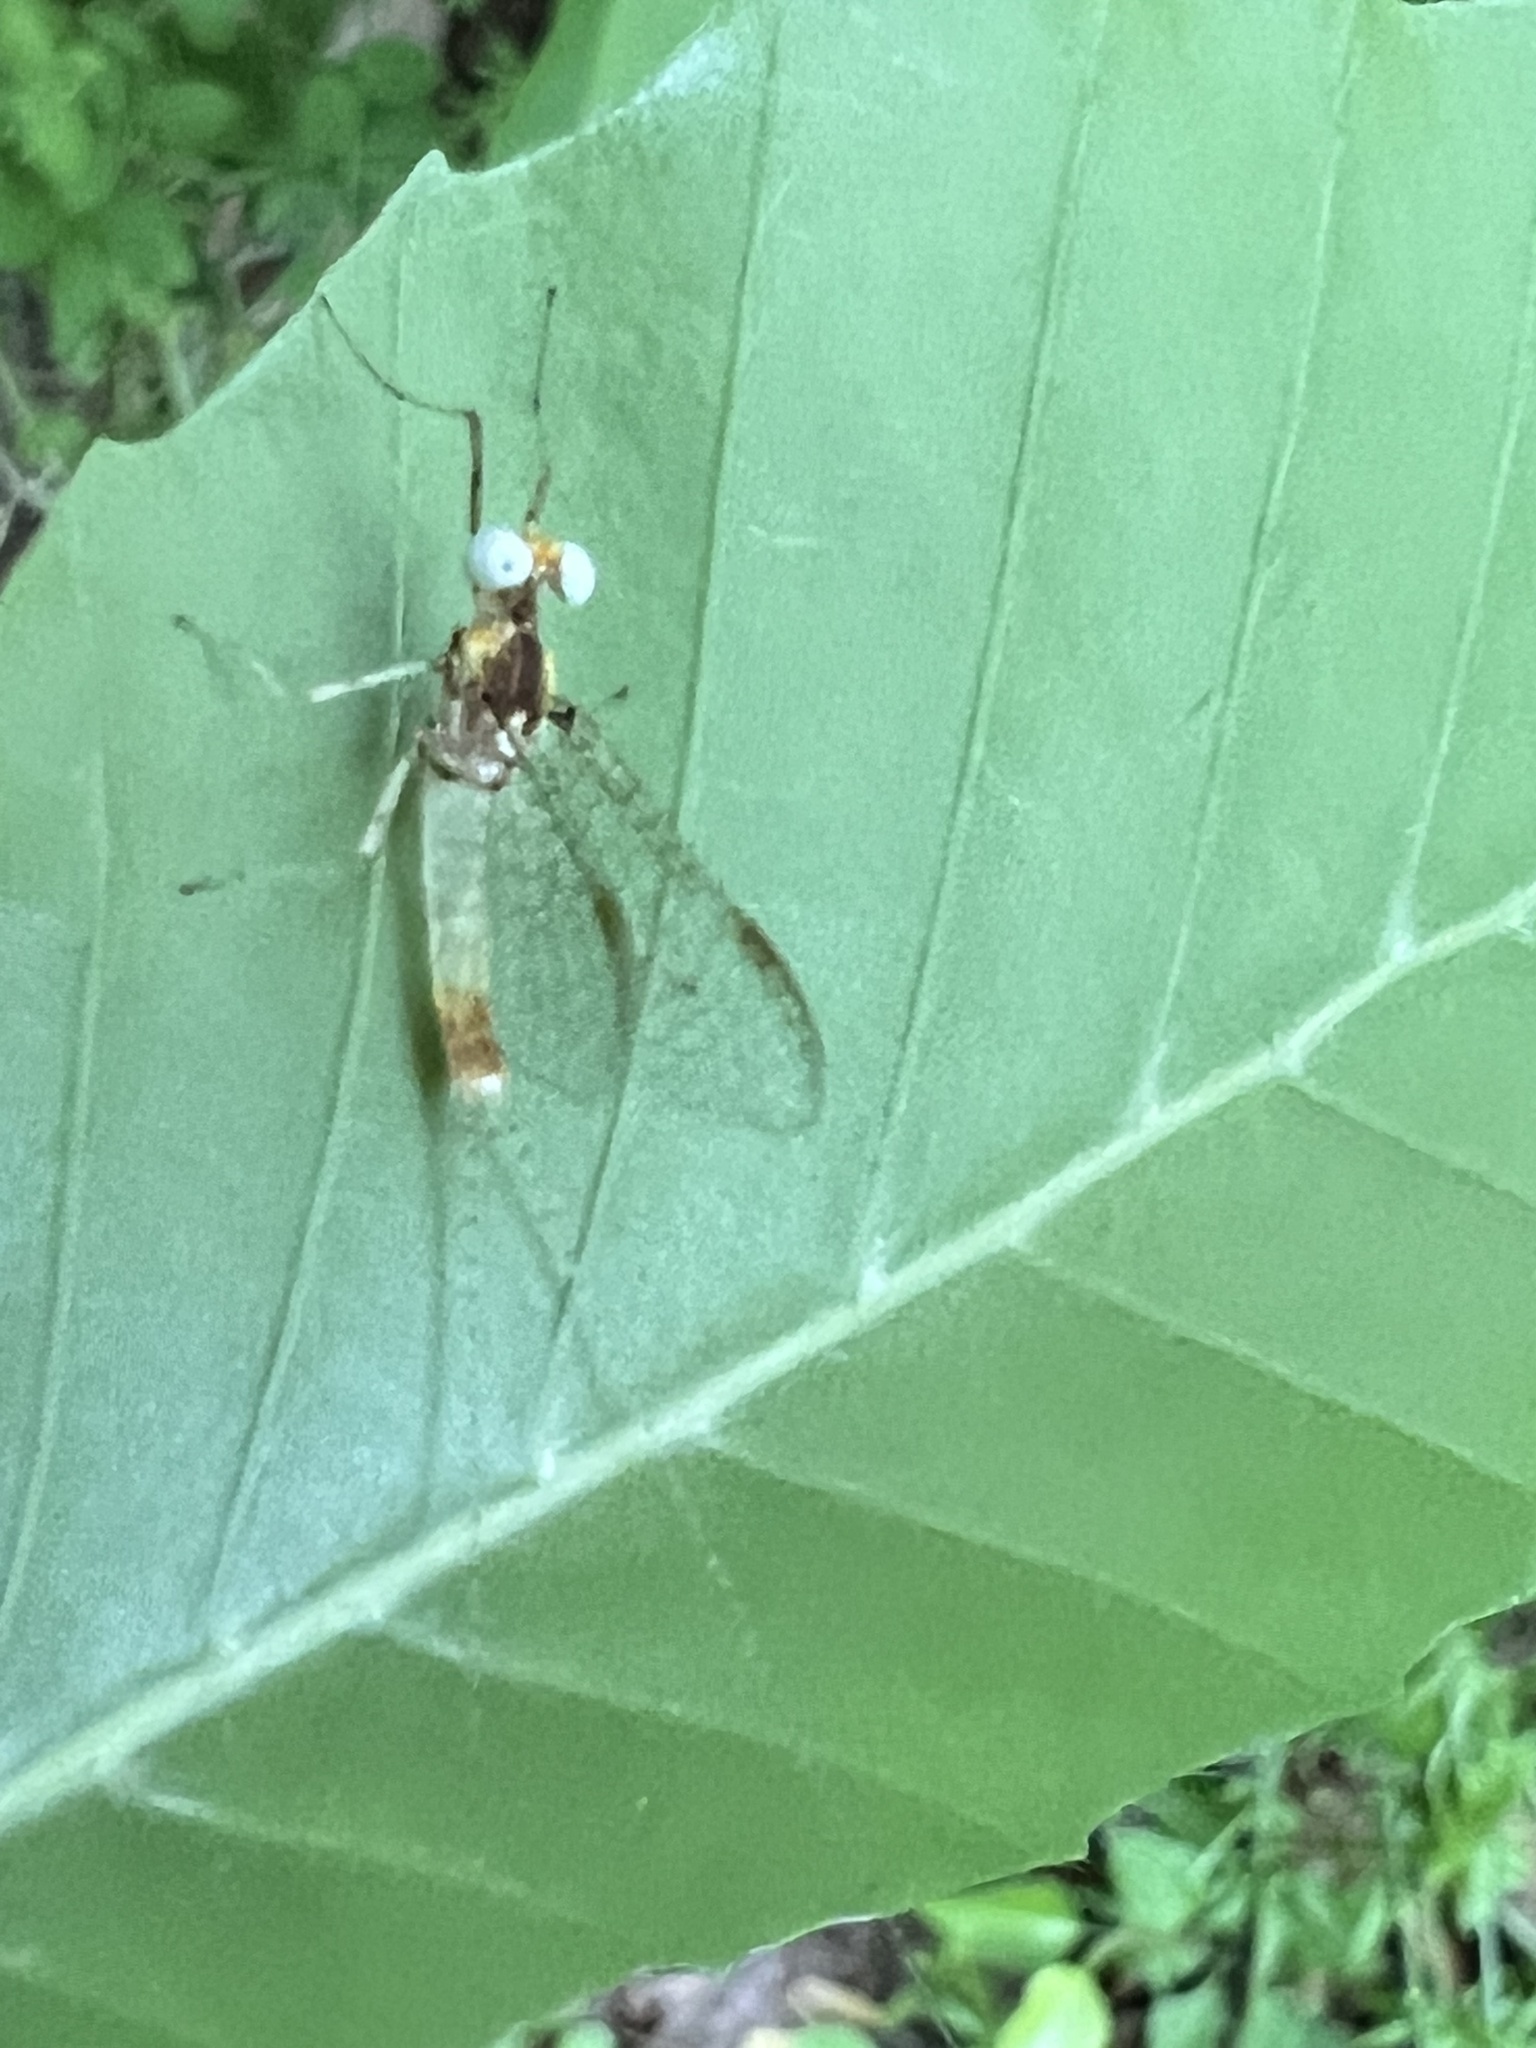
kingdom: Animalia
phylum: Arthropoda
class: Insecta
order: Ephemeroptera
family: Heptageniidae
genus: Maccaffertium
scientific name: Maccaffertium modestum
